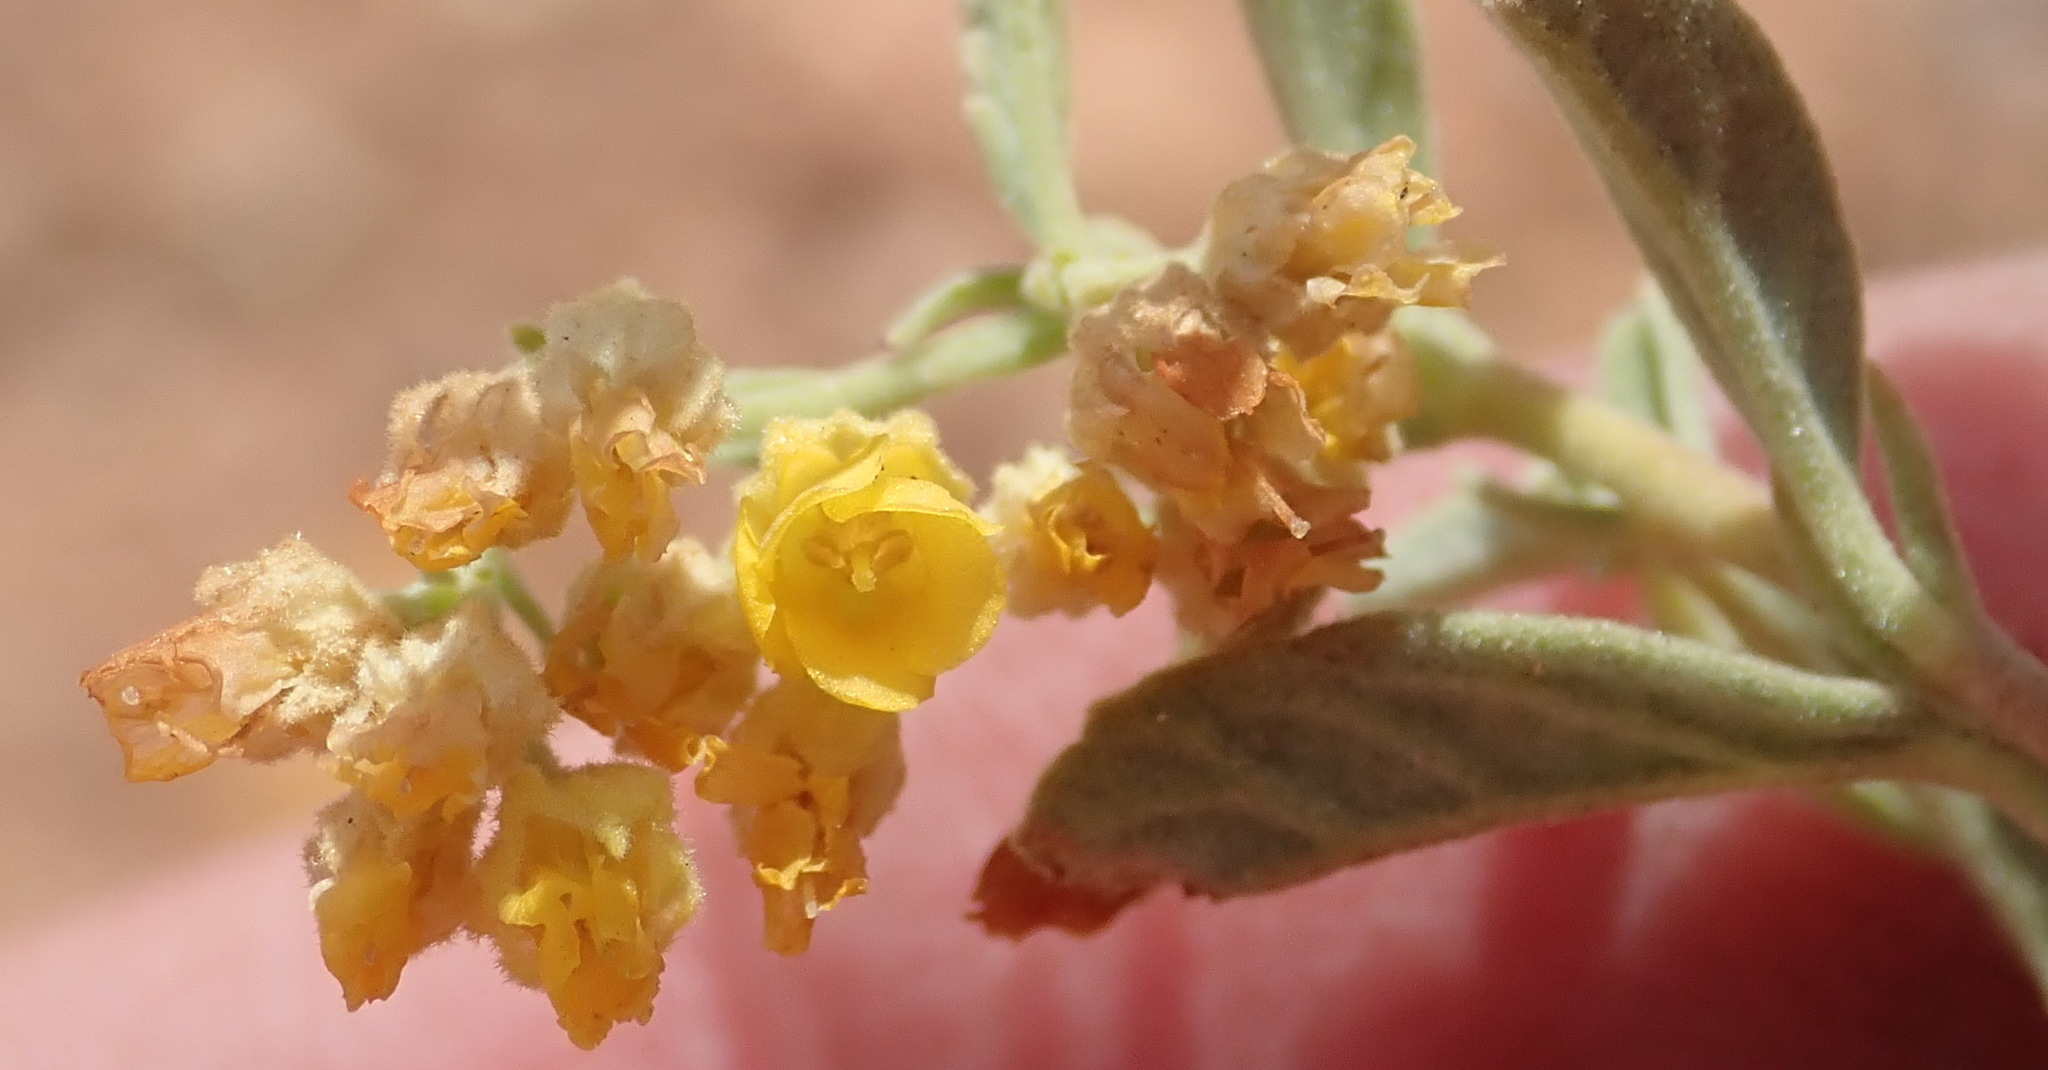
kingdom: Plantae
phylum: Tracheophyta
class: Magnoliopsida
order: Malvales
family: Malvaceae
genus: Hermannia
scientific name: Hermannia holosericea
